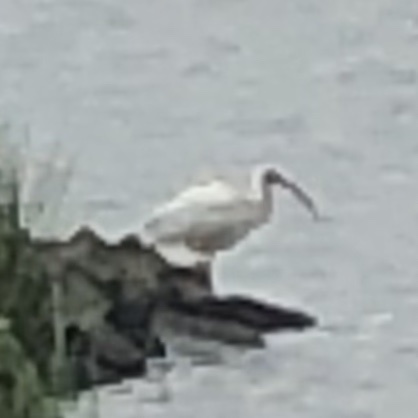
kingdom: Animalia
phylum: Chordata
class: Aves
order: Pelecaniformes
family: Threskiornithidae
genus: Eudocimus
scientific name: Eudocimus albus
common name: White ibis
